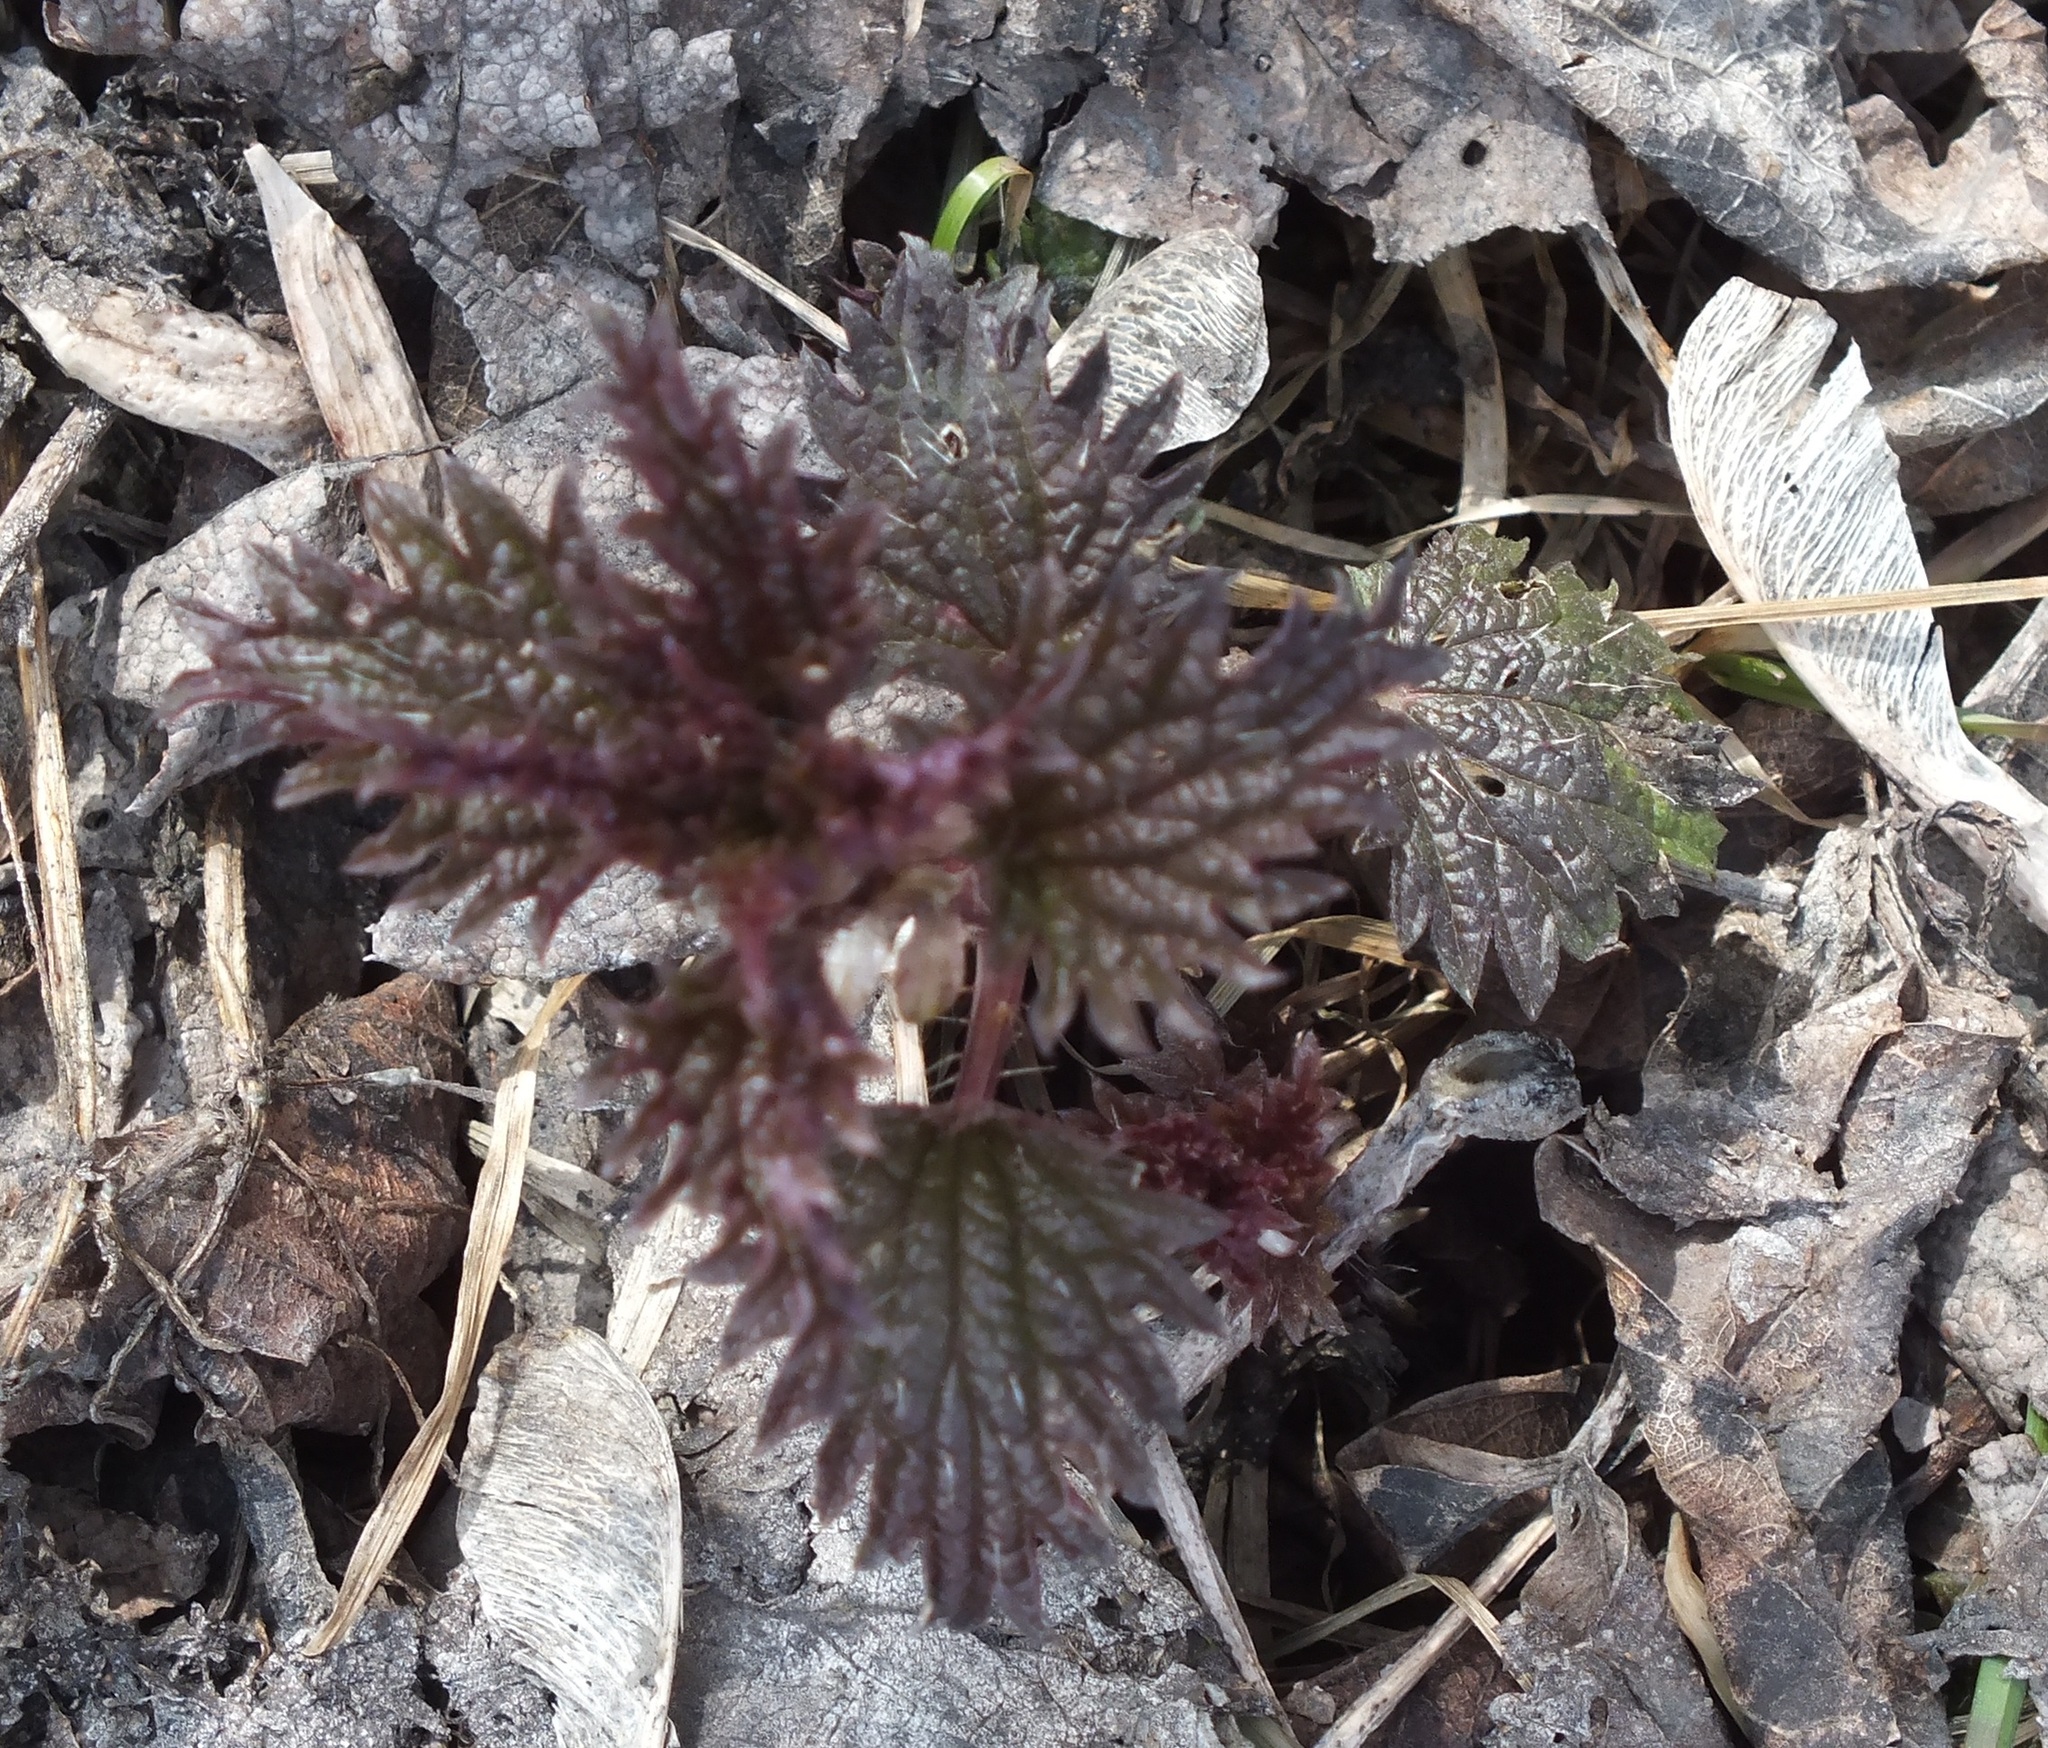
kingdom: Plantae
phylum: Tracheophyta
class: Magnoliopsida
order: Rosales
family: Urticaceae
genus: Urtica
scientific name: Urtica dioica
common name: Common nettle
